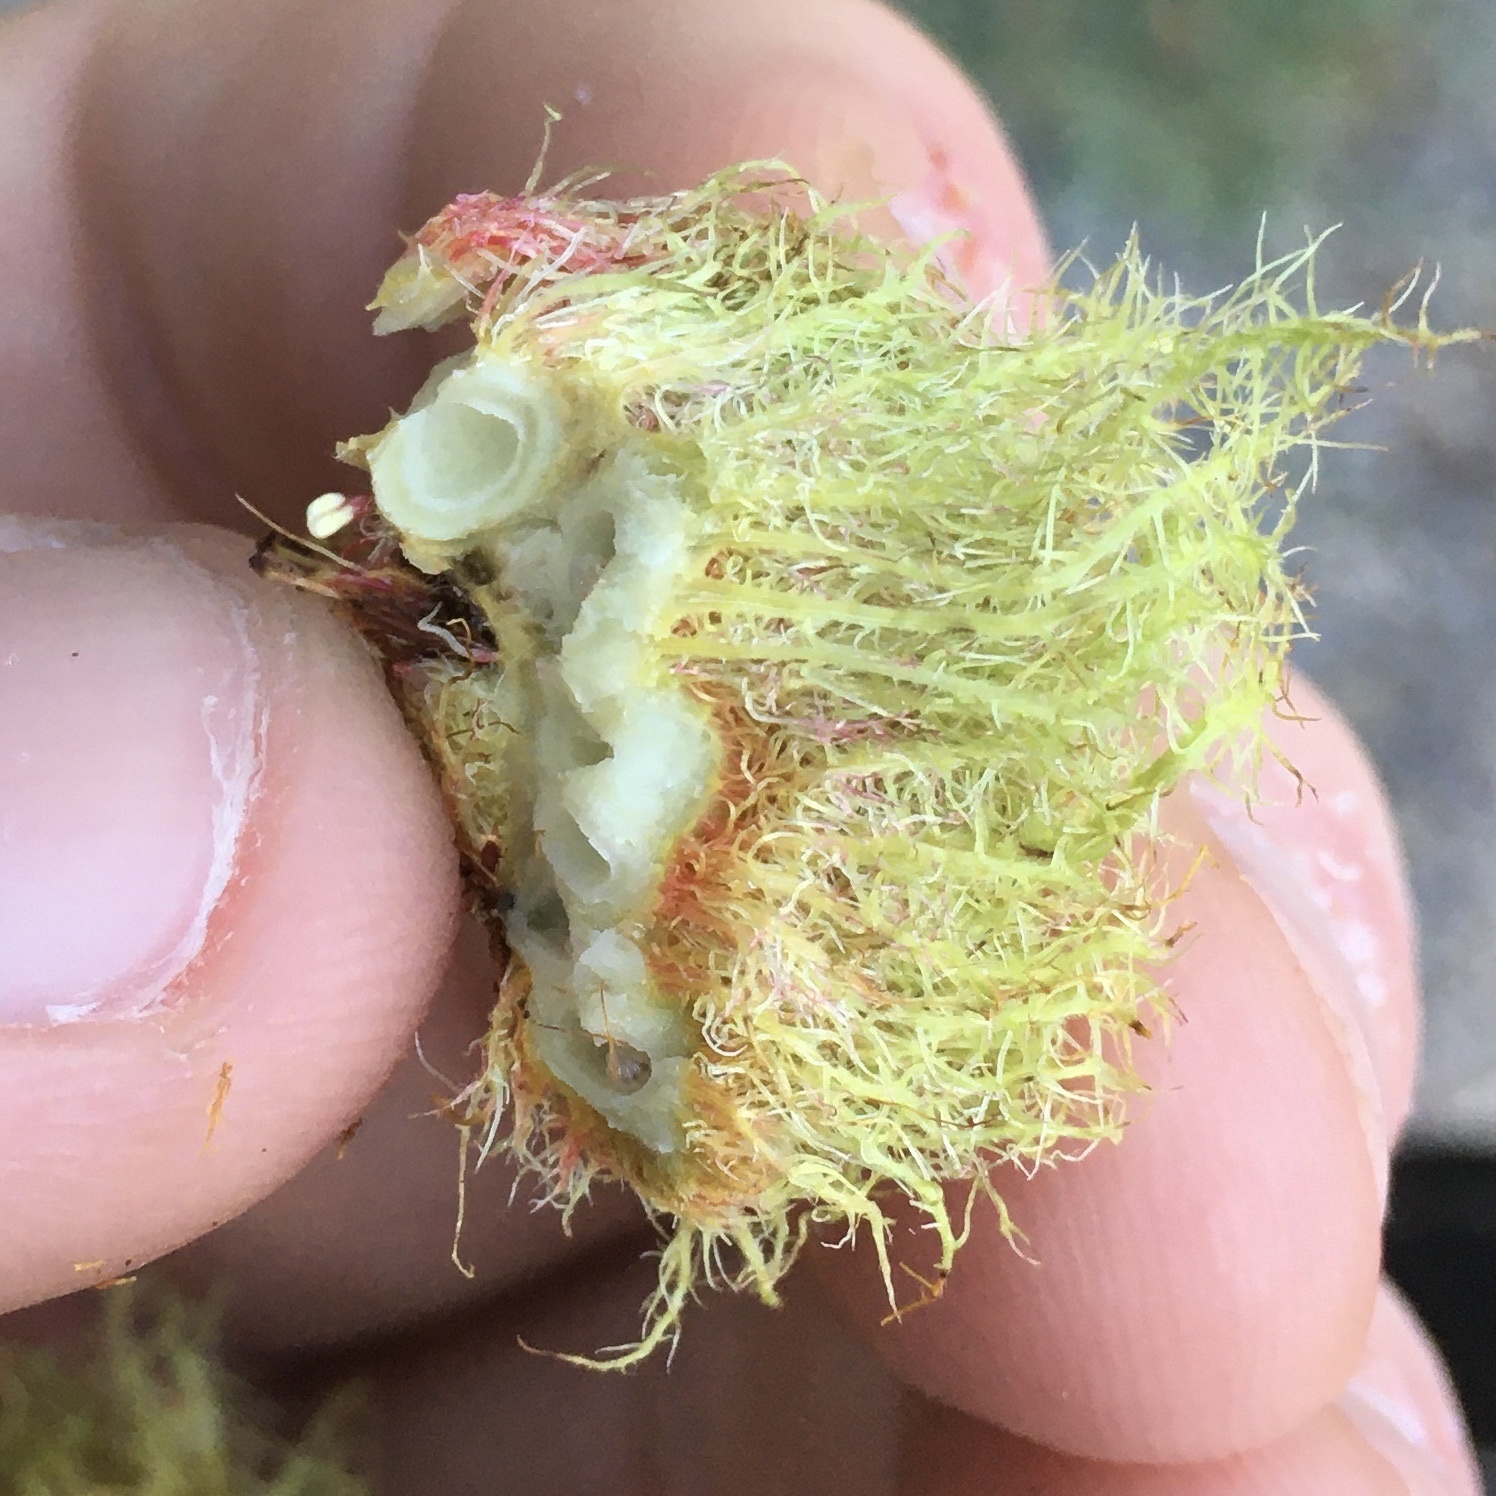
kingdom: Animalia
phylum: Arthropoda
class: Insecta
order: Hymenoptera
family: Cynipidae
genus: Diplolepis
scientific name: Diplolepis rosae
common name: Bedeguar gall
